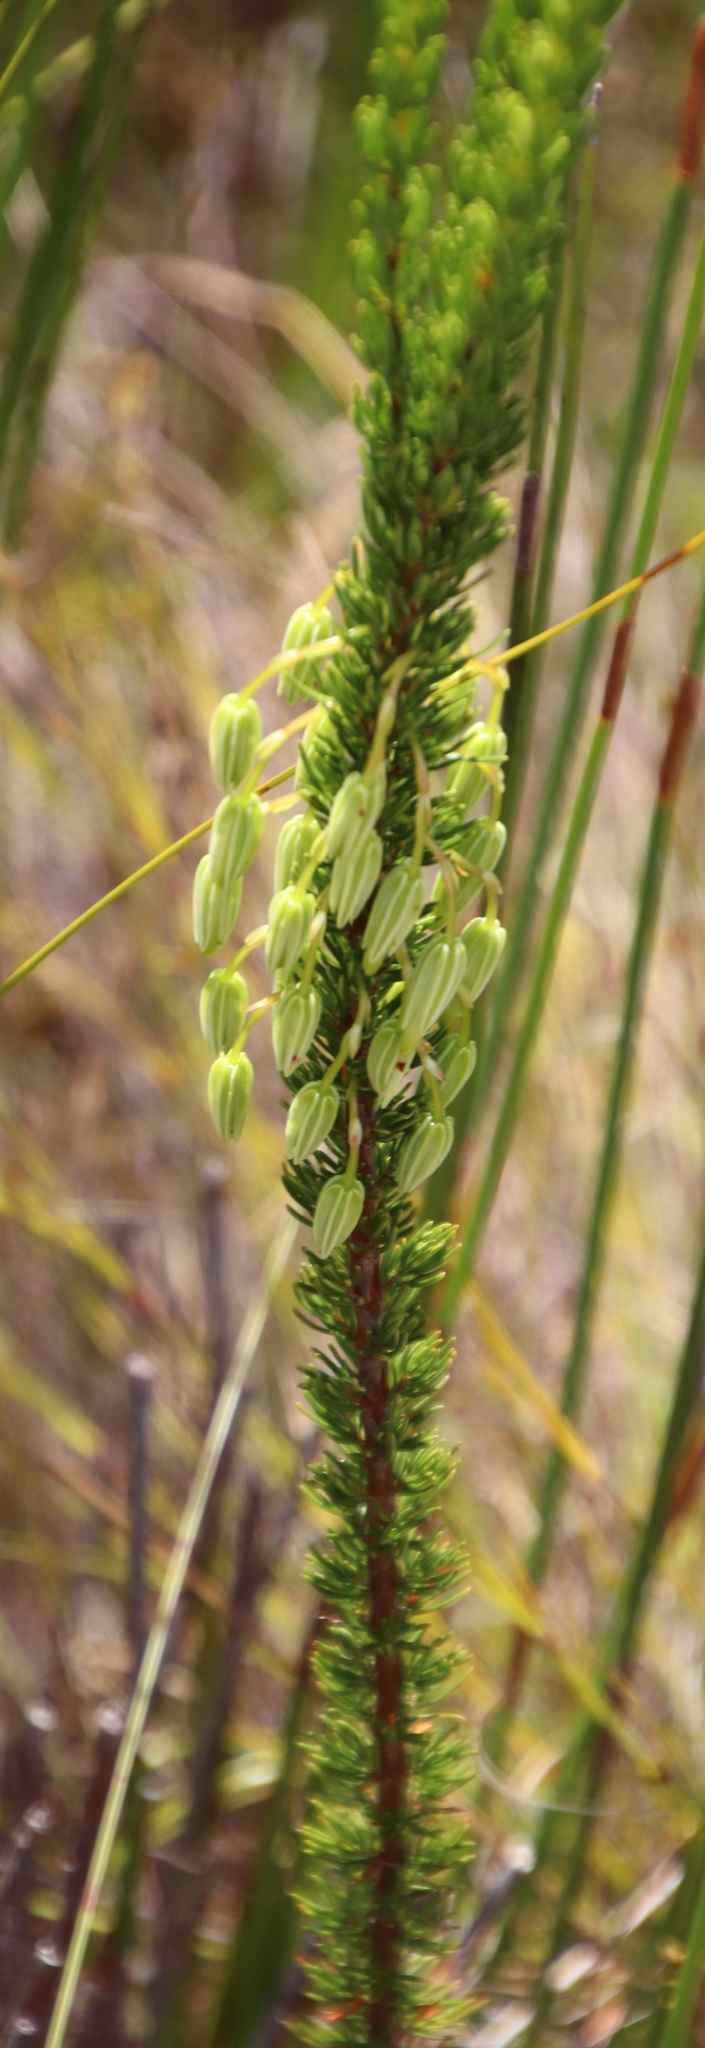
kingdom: Plantae
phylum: Tracheophyta
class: Magnoliopsida
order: Ericales
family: Ericaceae
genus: Erica
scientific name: Erica plukenetii
